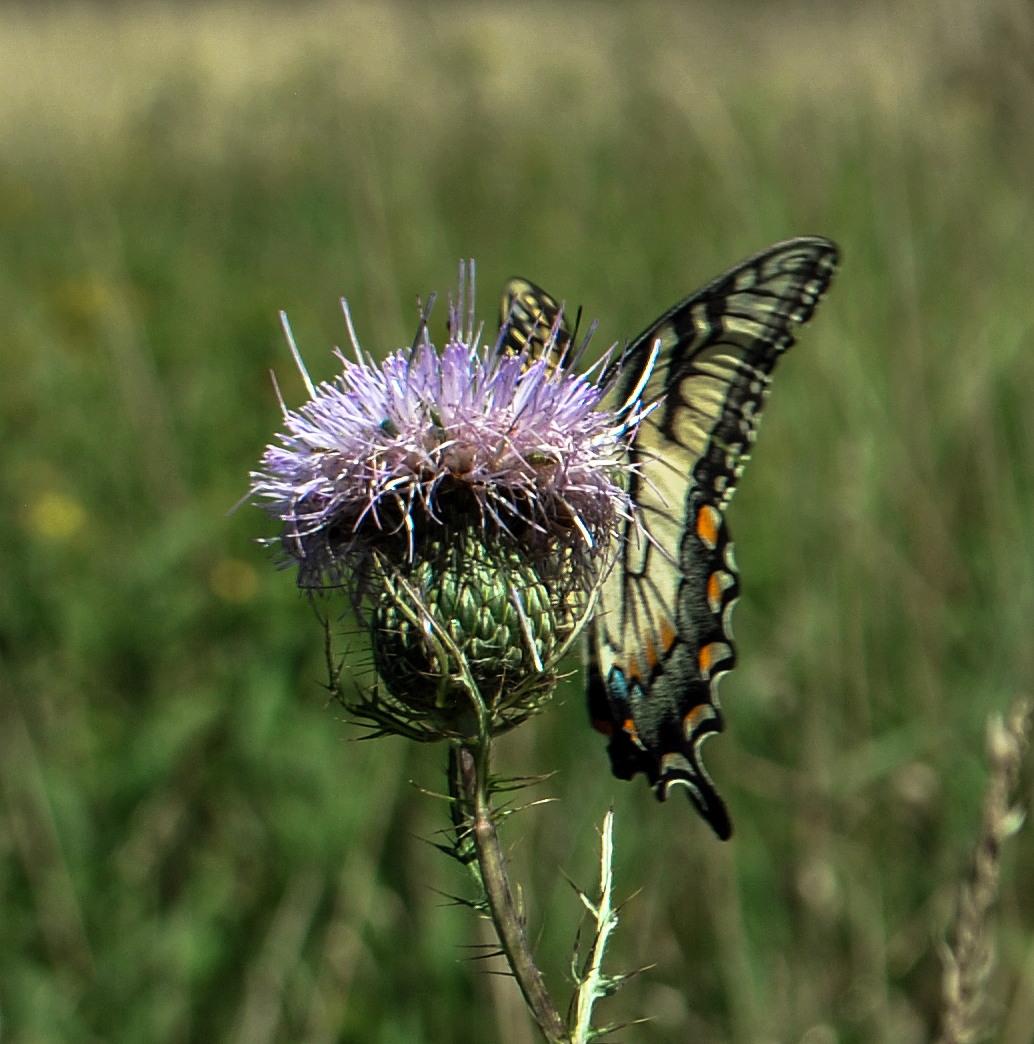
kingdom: Animalia
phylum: Arthropoda
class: Insecta
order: Lepidoptera
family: Papilionidae
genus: Papilio
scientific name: Papilio glaucus
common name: Tiger swallowtail
